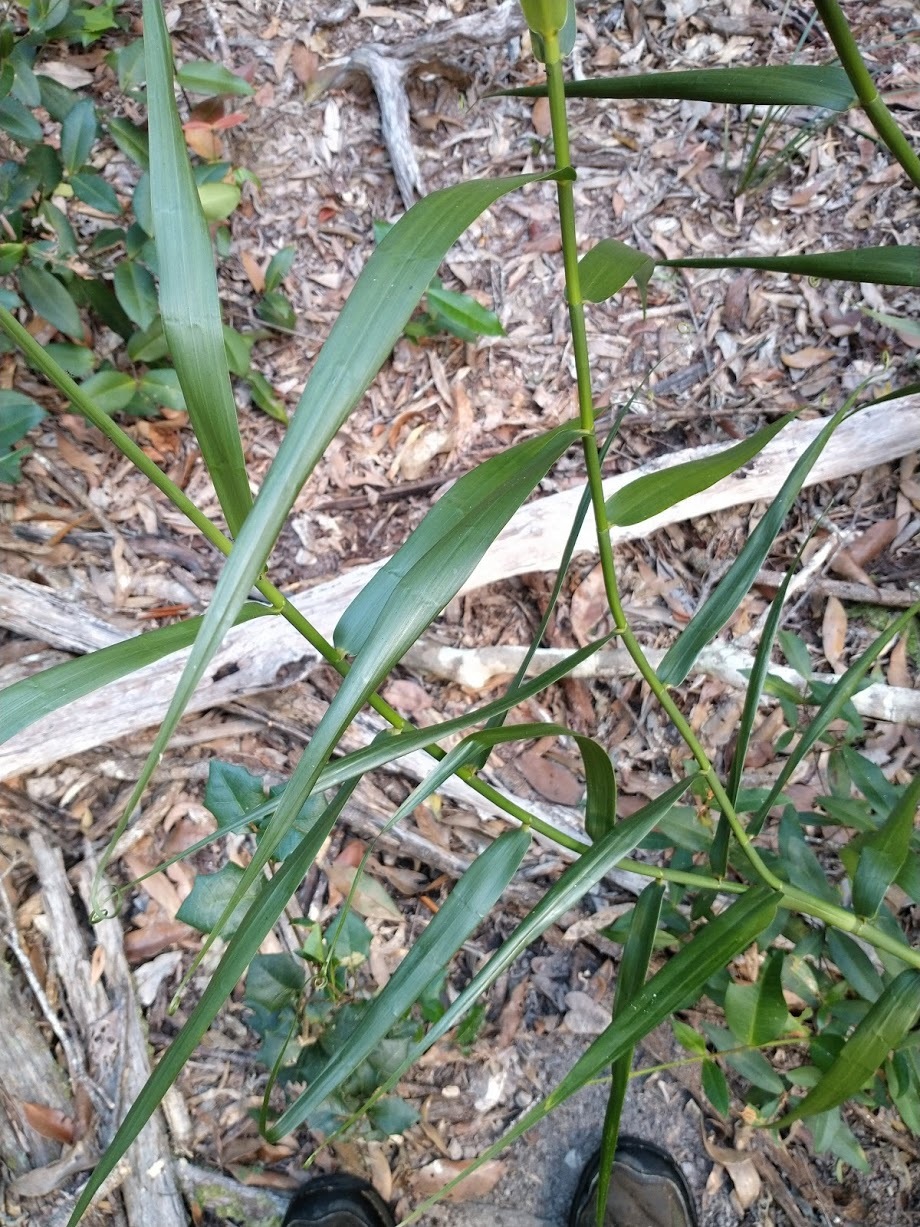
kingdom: Plantae
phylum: Tracheophyta
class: Liliopsida
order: Poales
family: Flagellariaceae
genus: Flagellaria
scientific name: Flagellaria indica
